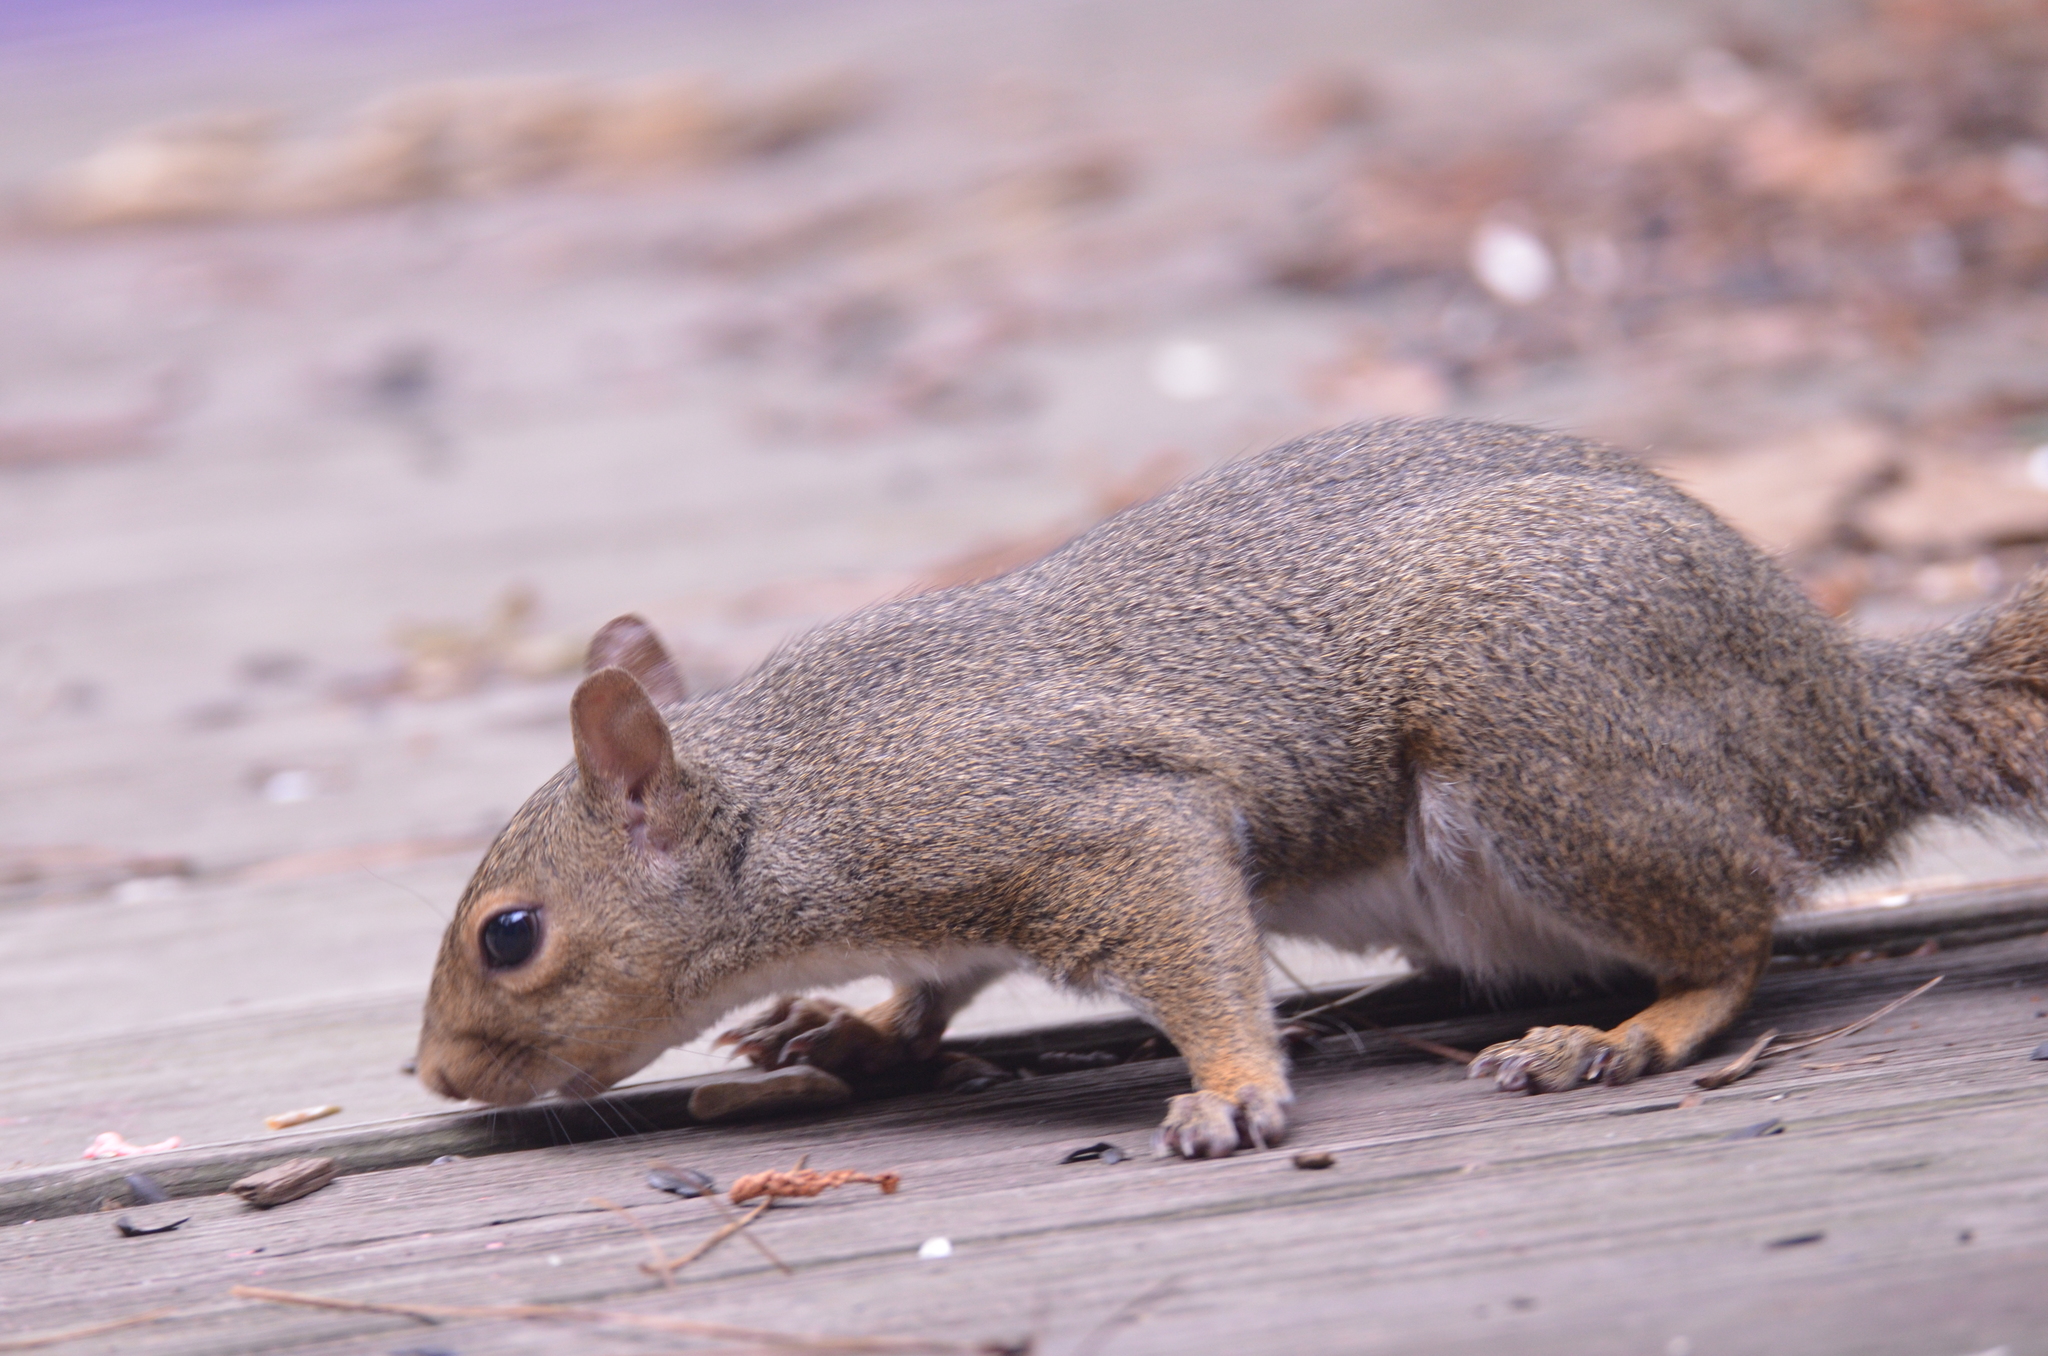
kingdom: Animalia
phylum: Chordata
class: Mammalia
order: Rodentia
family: Sciuridae
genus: Sciurus
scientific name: Sciurus carolinensis
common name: Eastern gray squirrel
